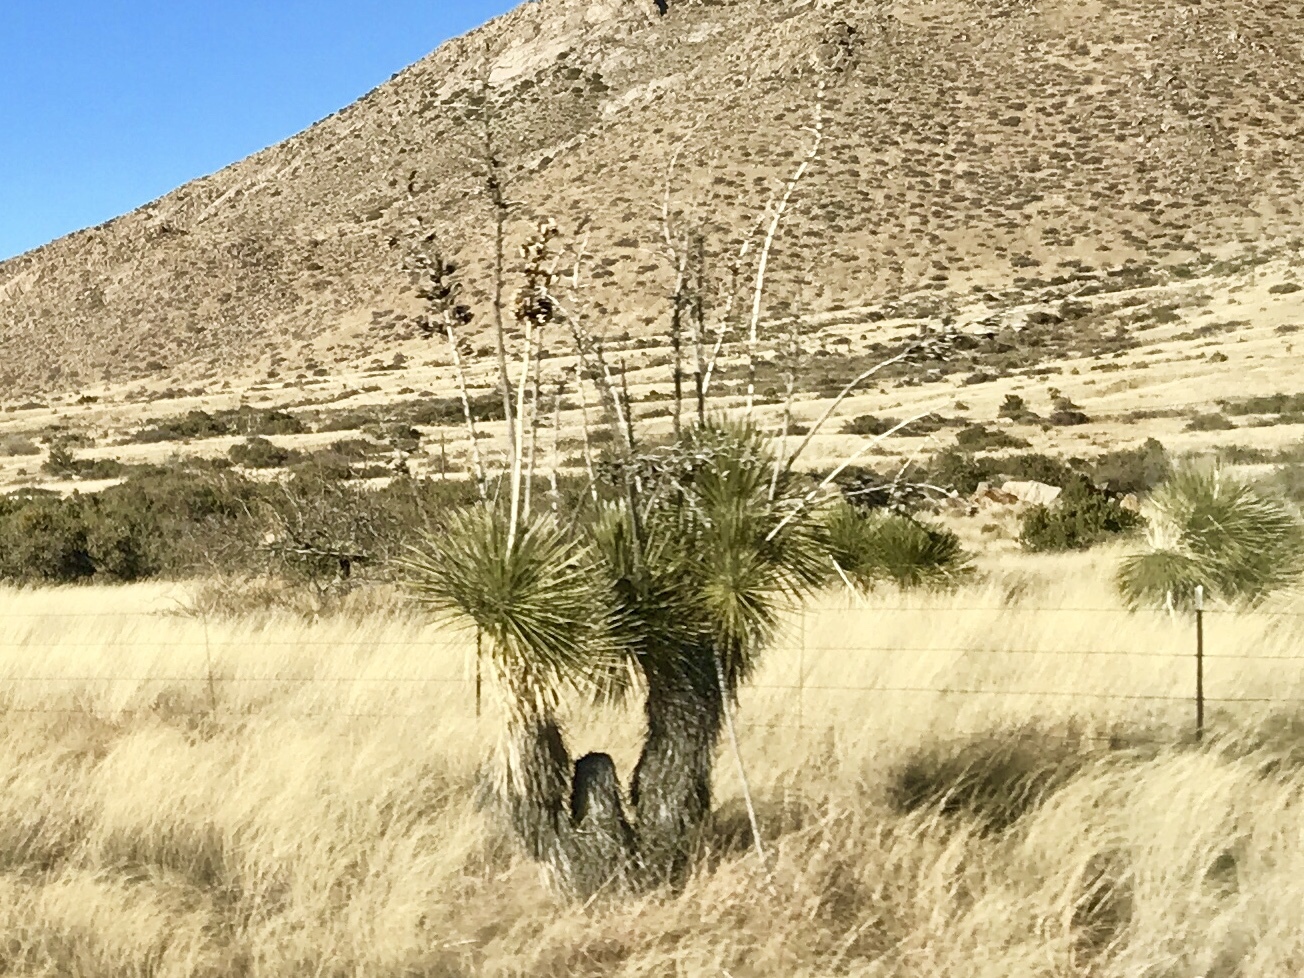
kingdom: Plantae
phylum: Tracheophyta
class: Liliopsida
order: Asparagales
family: Asparagaceae
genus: Yucca
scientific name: Yucca elata
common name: Palmella
